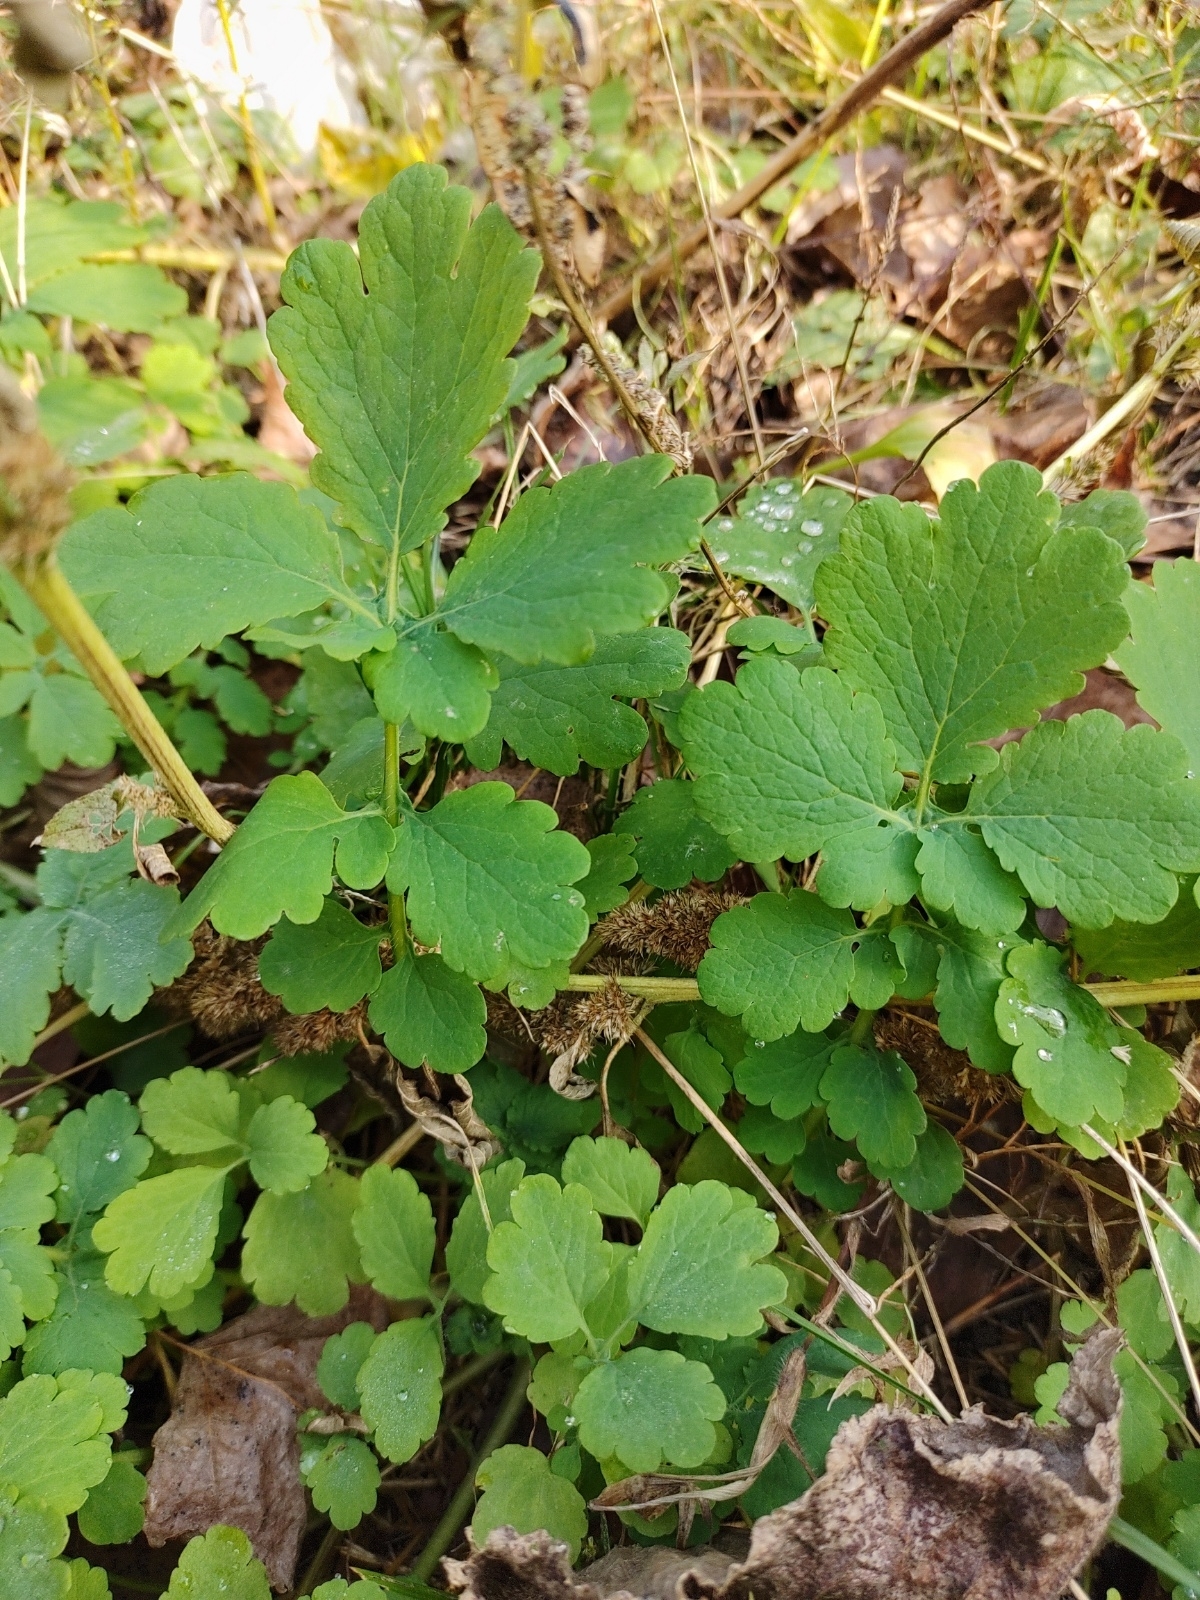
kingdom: Plantae
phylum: Tracheophyta
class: Magnoliopsida
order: Ranunculales
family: Papaveraceae
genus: Chelidonium
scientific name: Chelidonium majus
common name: Greater celandine
